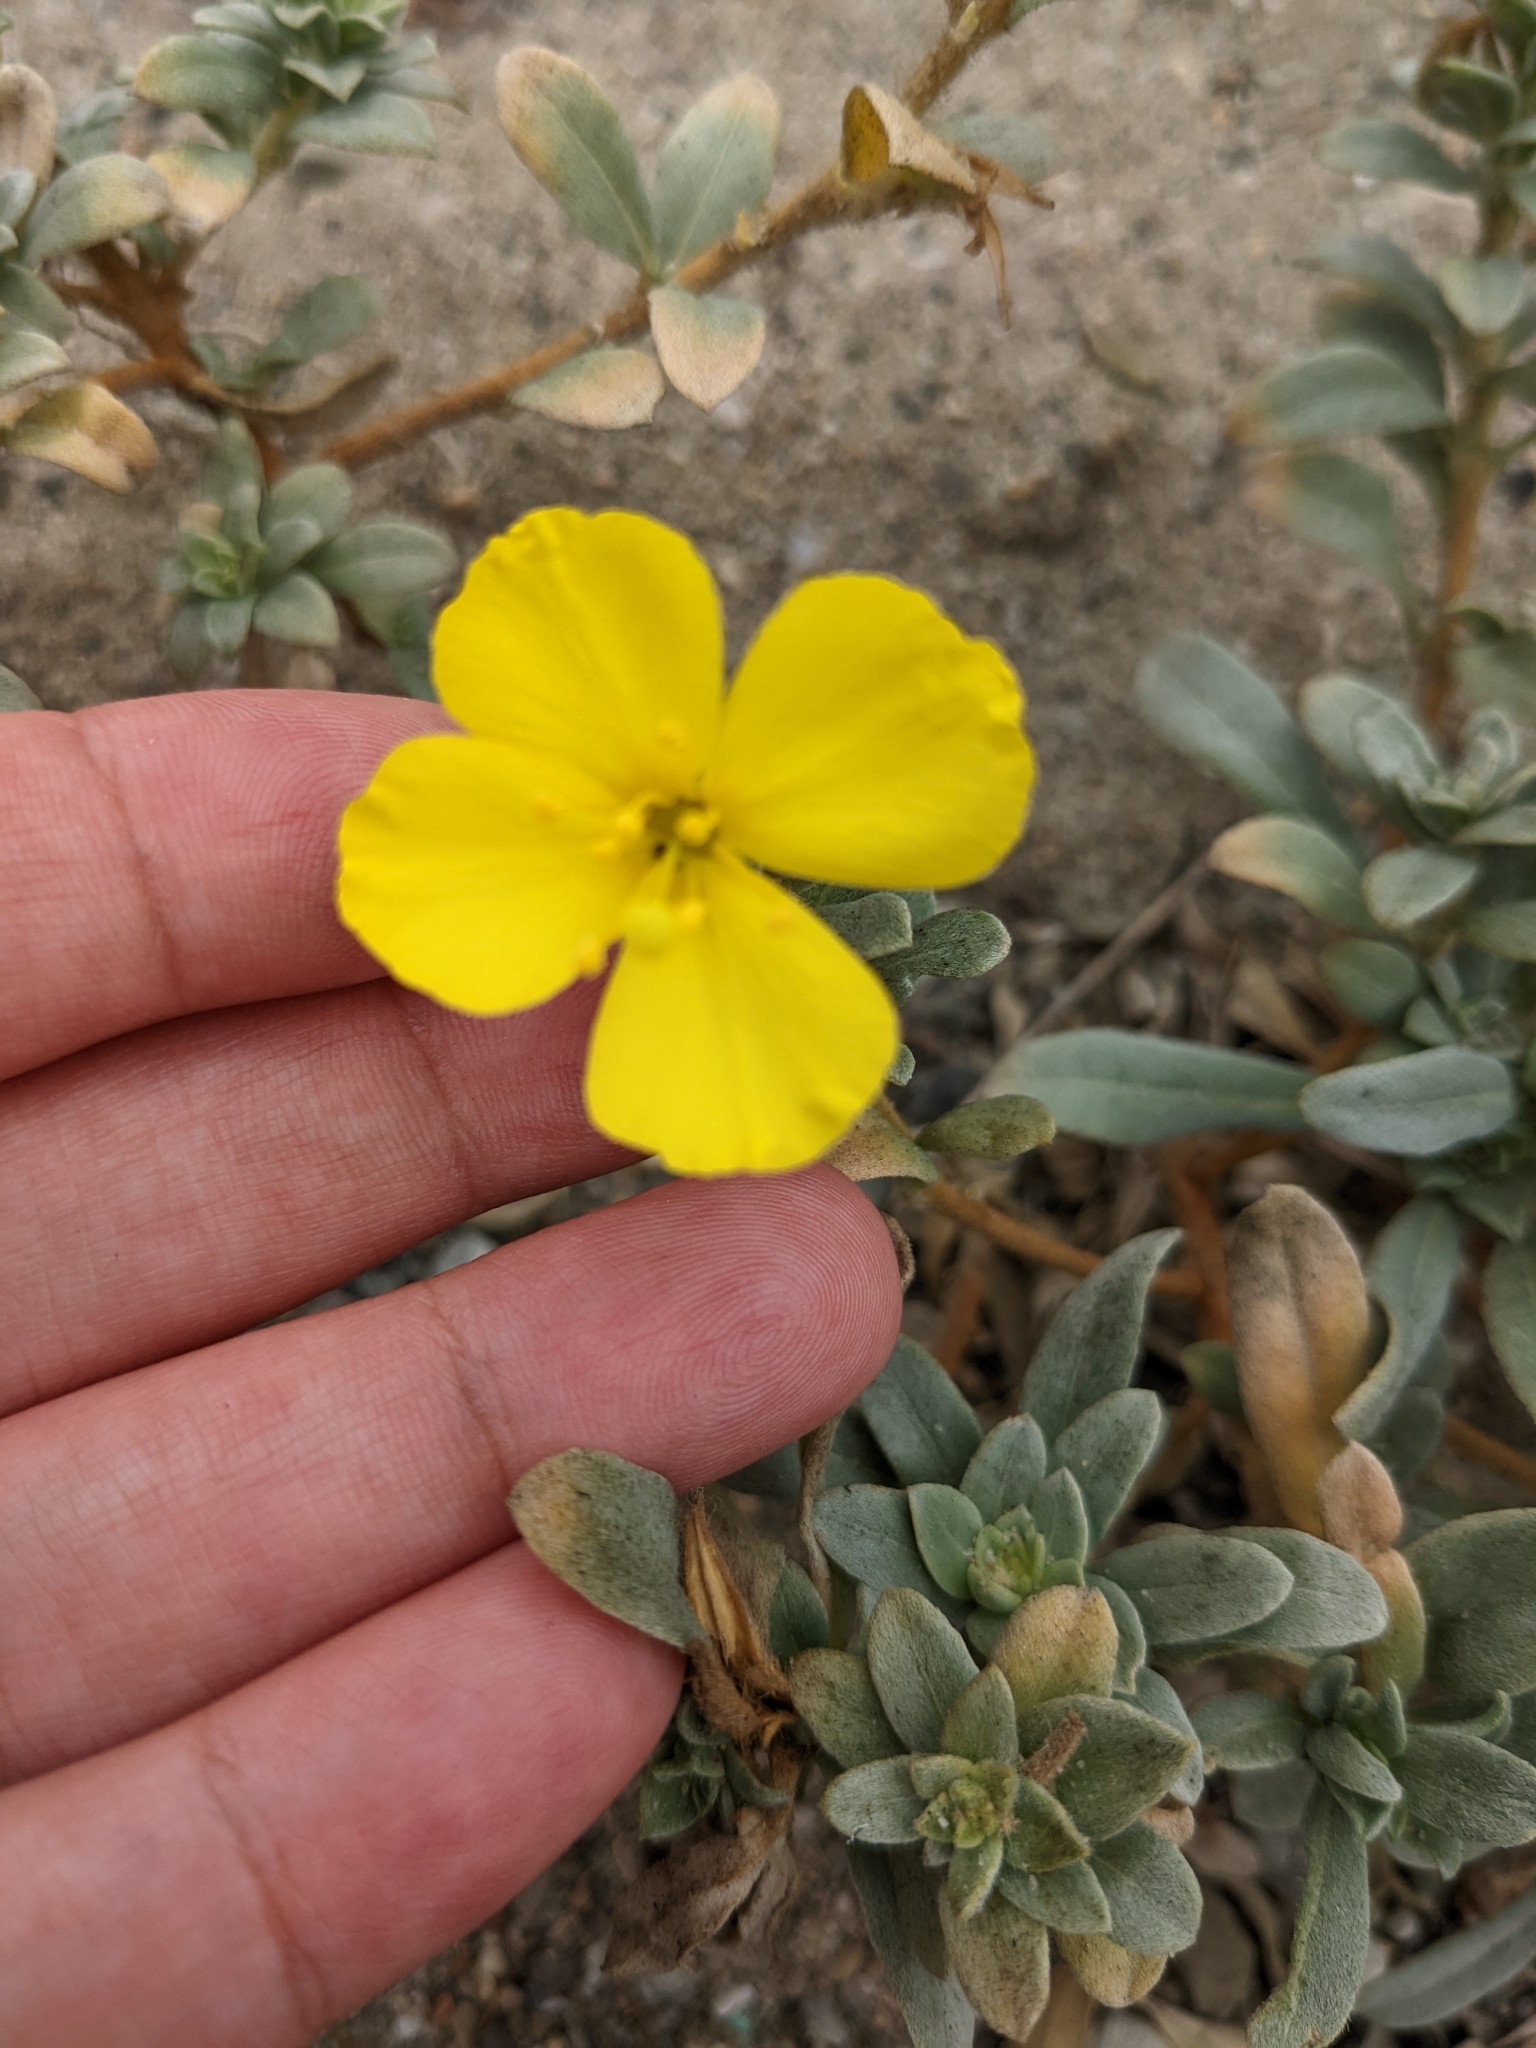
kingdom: Plantae
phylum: Tracheophyta
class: Magnoliopsida
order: Myrtales
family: Onagraceae
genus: Camissoniopsis
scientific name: Camissoniopsis cheiranthifolia
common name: Beach suncup
